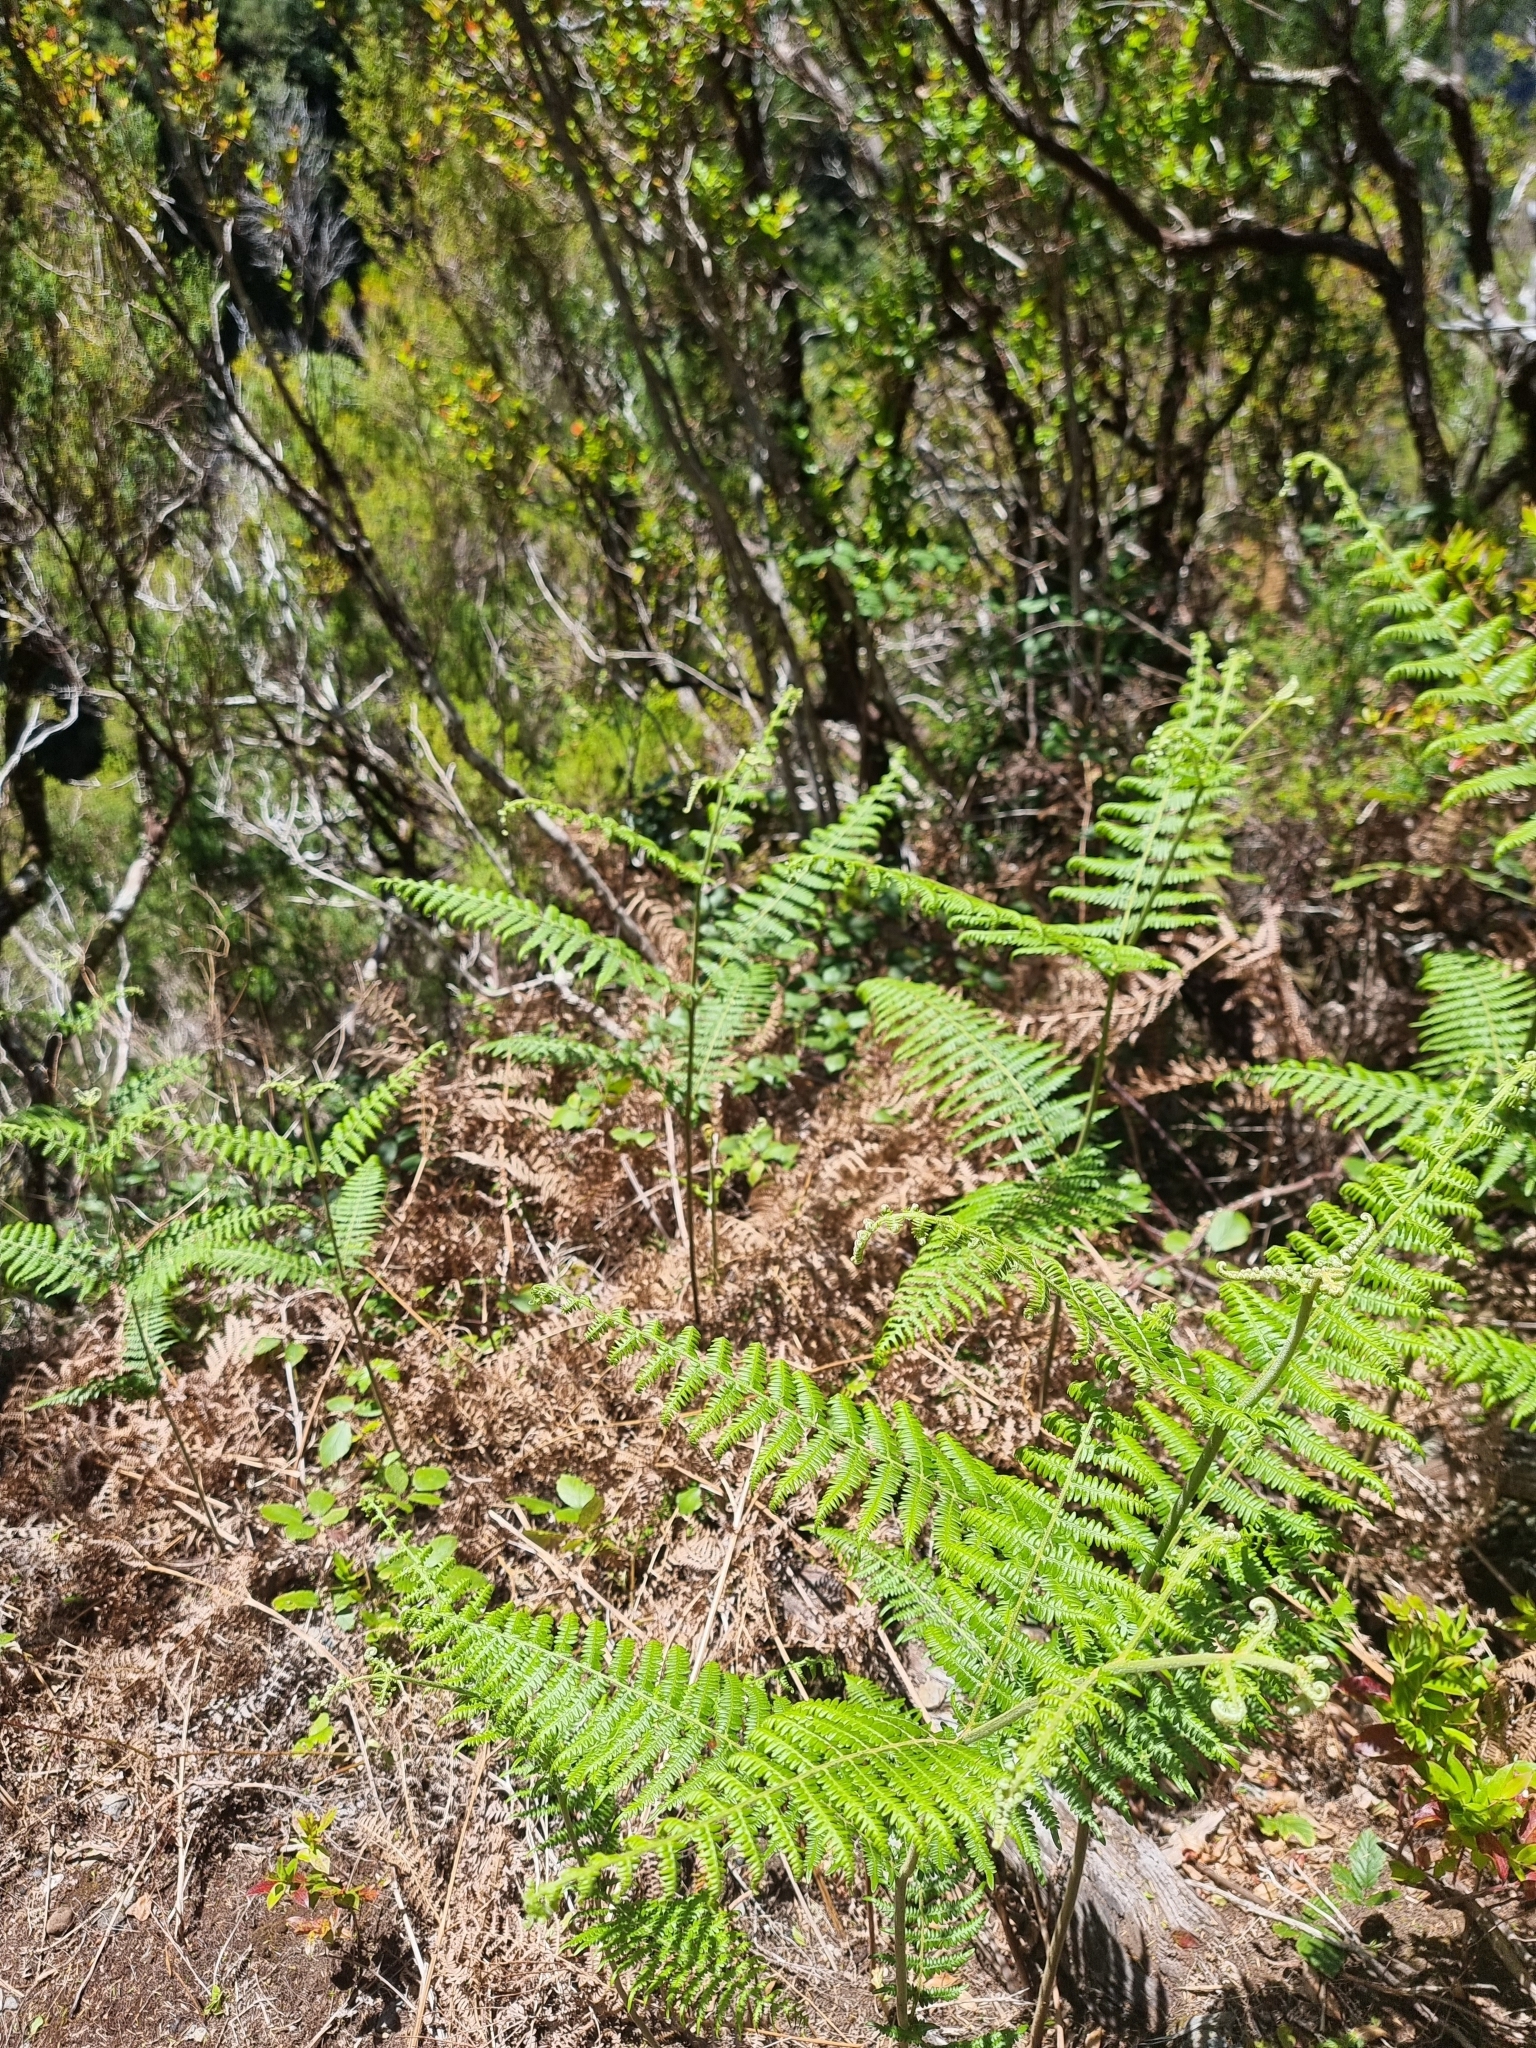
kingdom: Plantae
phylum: Tracheophyta
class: Polypodiopsida
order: Polypodiales
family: Dennstaedtiaceae
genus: Pteridium
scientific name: Pteridium aquilinum
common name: Bracken
